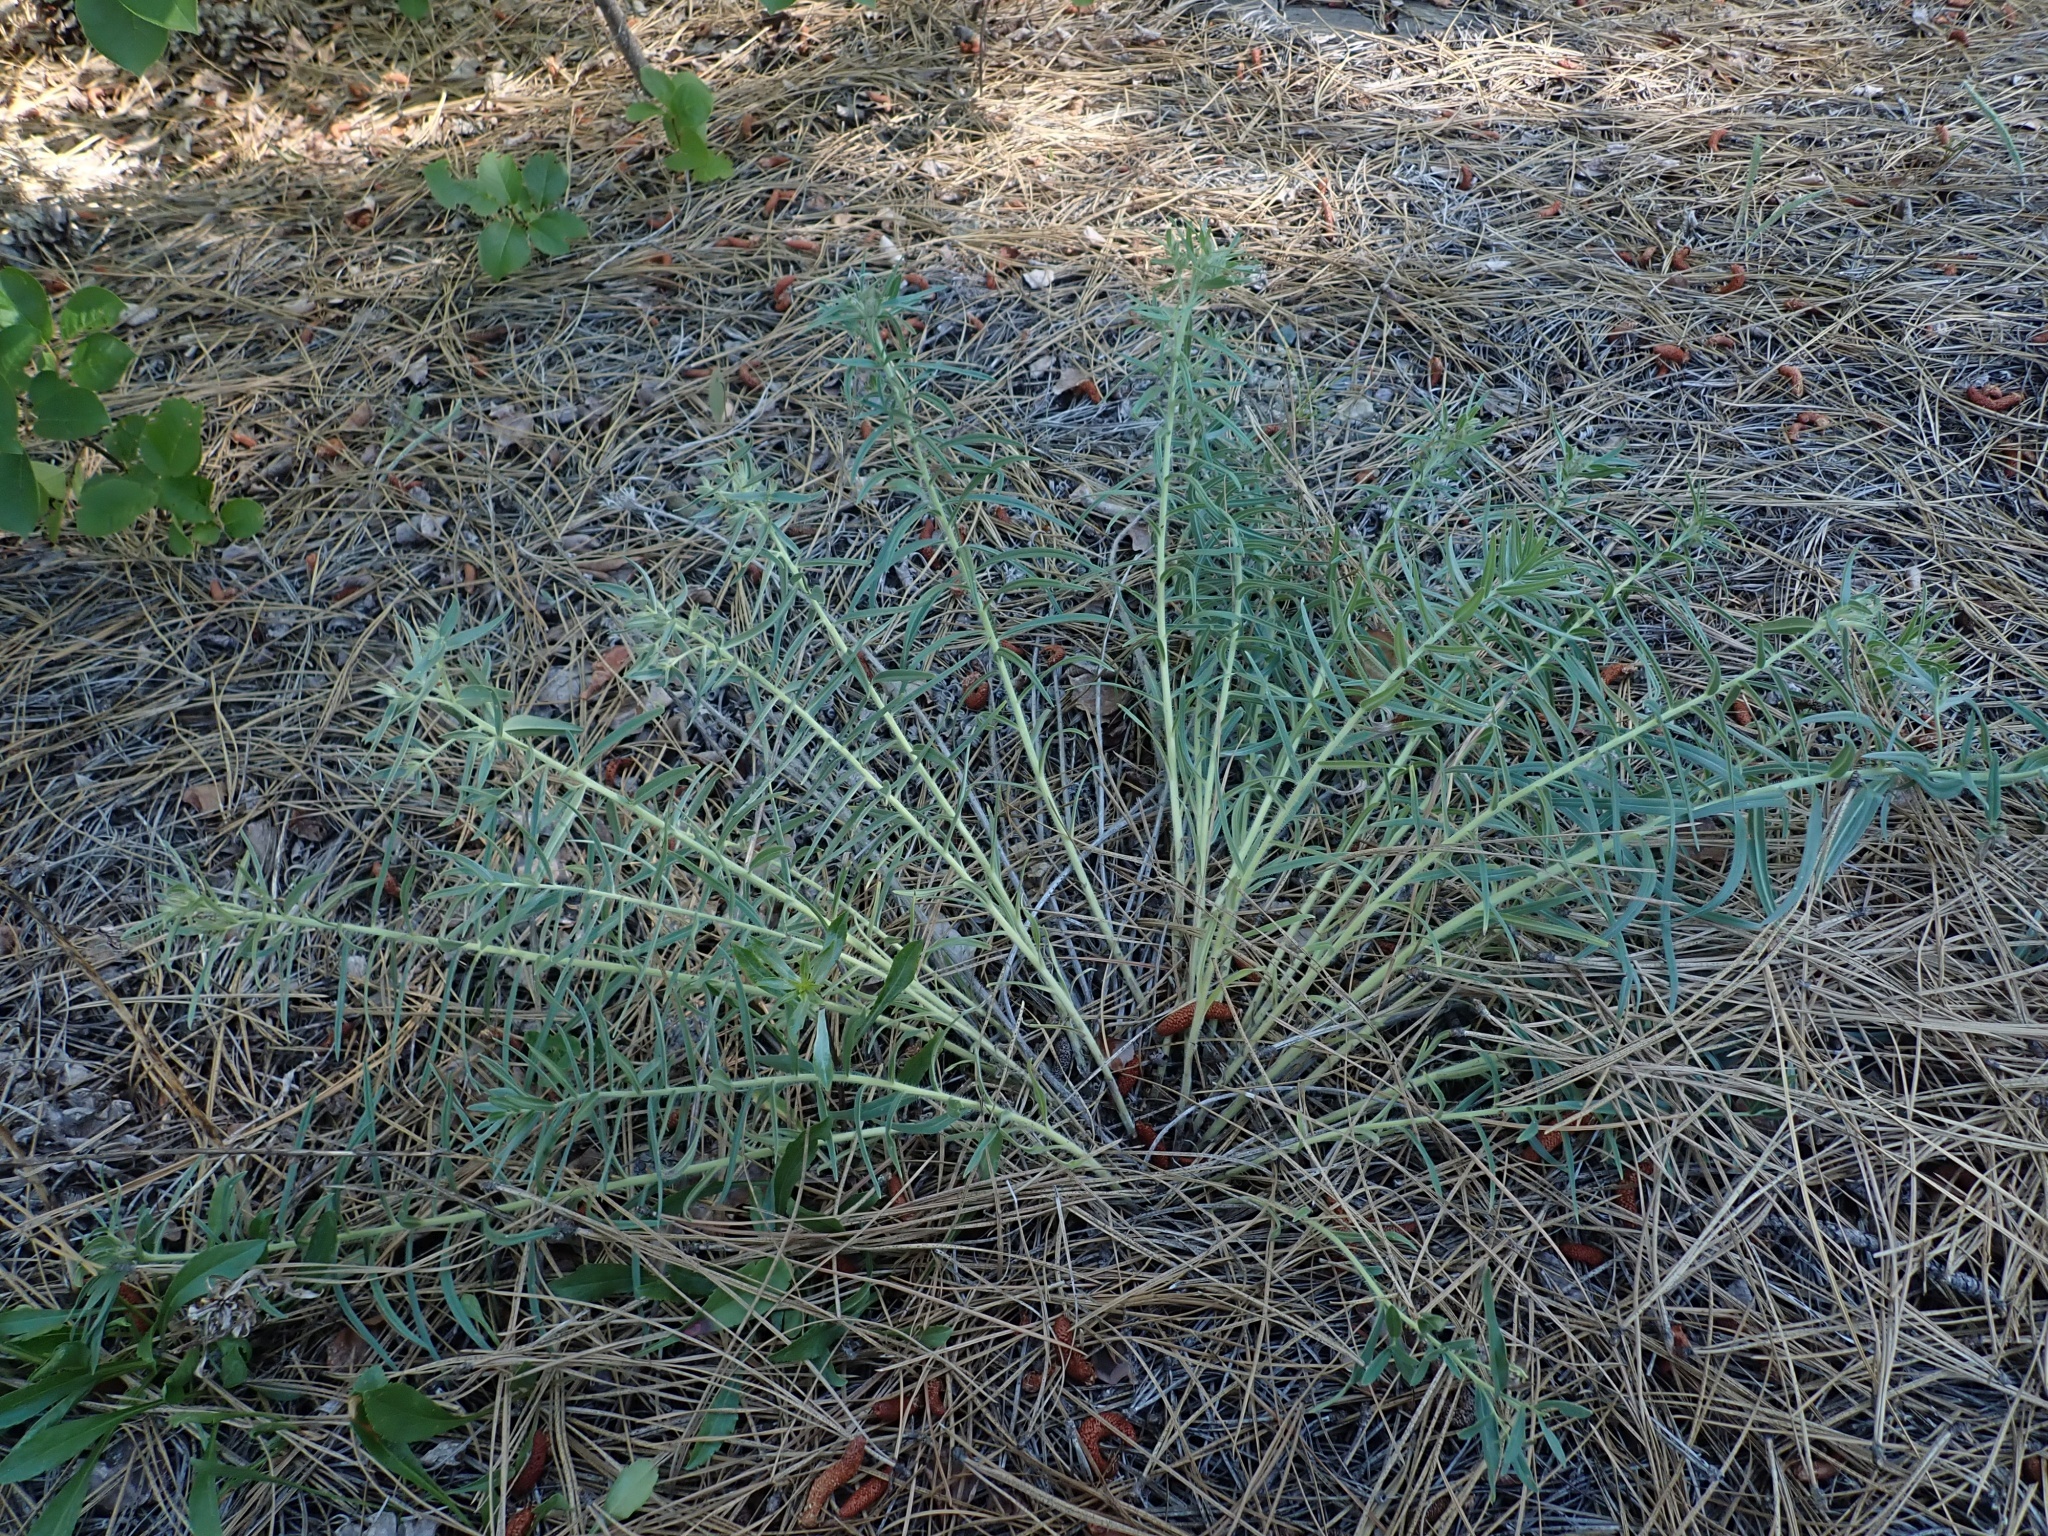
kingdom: Plantae
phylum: Tracheophyta
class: Magnoliopsida
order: Boraginales
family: Boraginaceae
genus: Lithospermum
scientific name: Lithospermum ruderale
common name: Western gromwell
